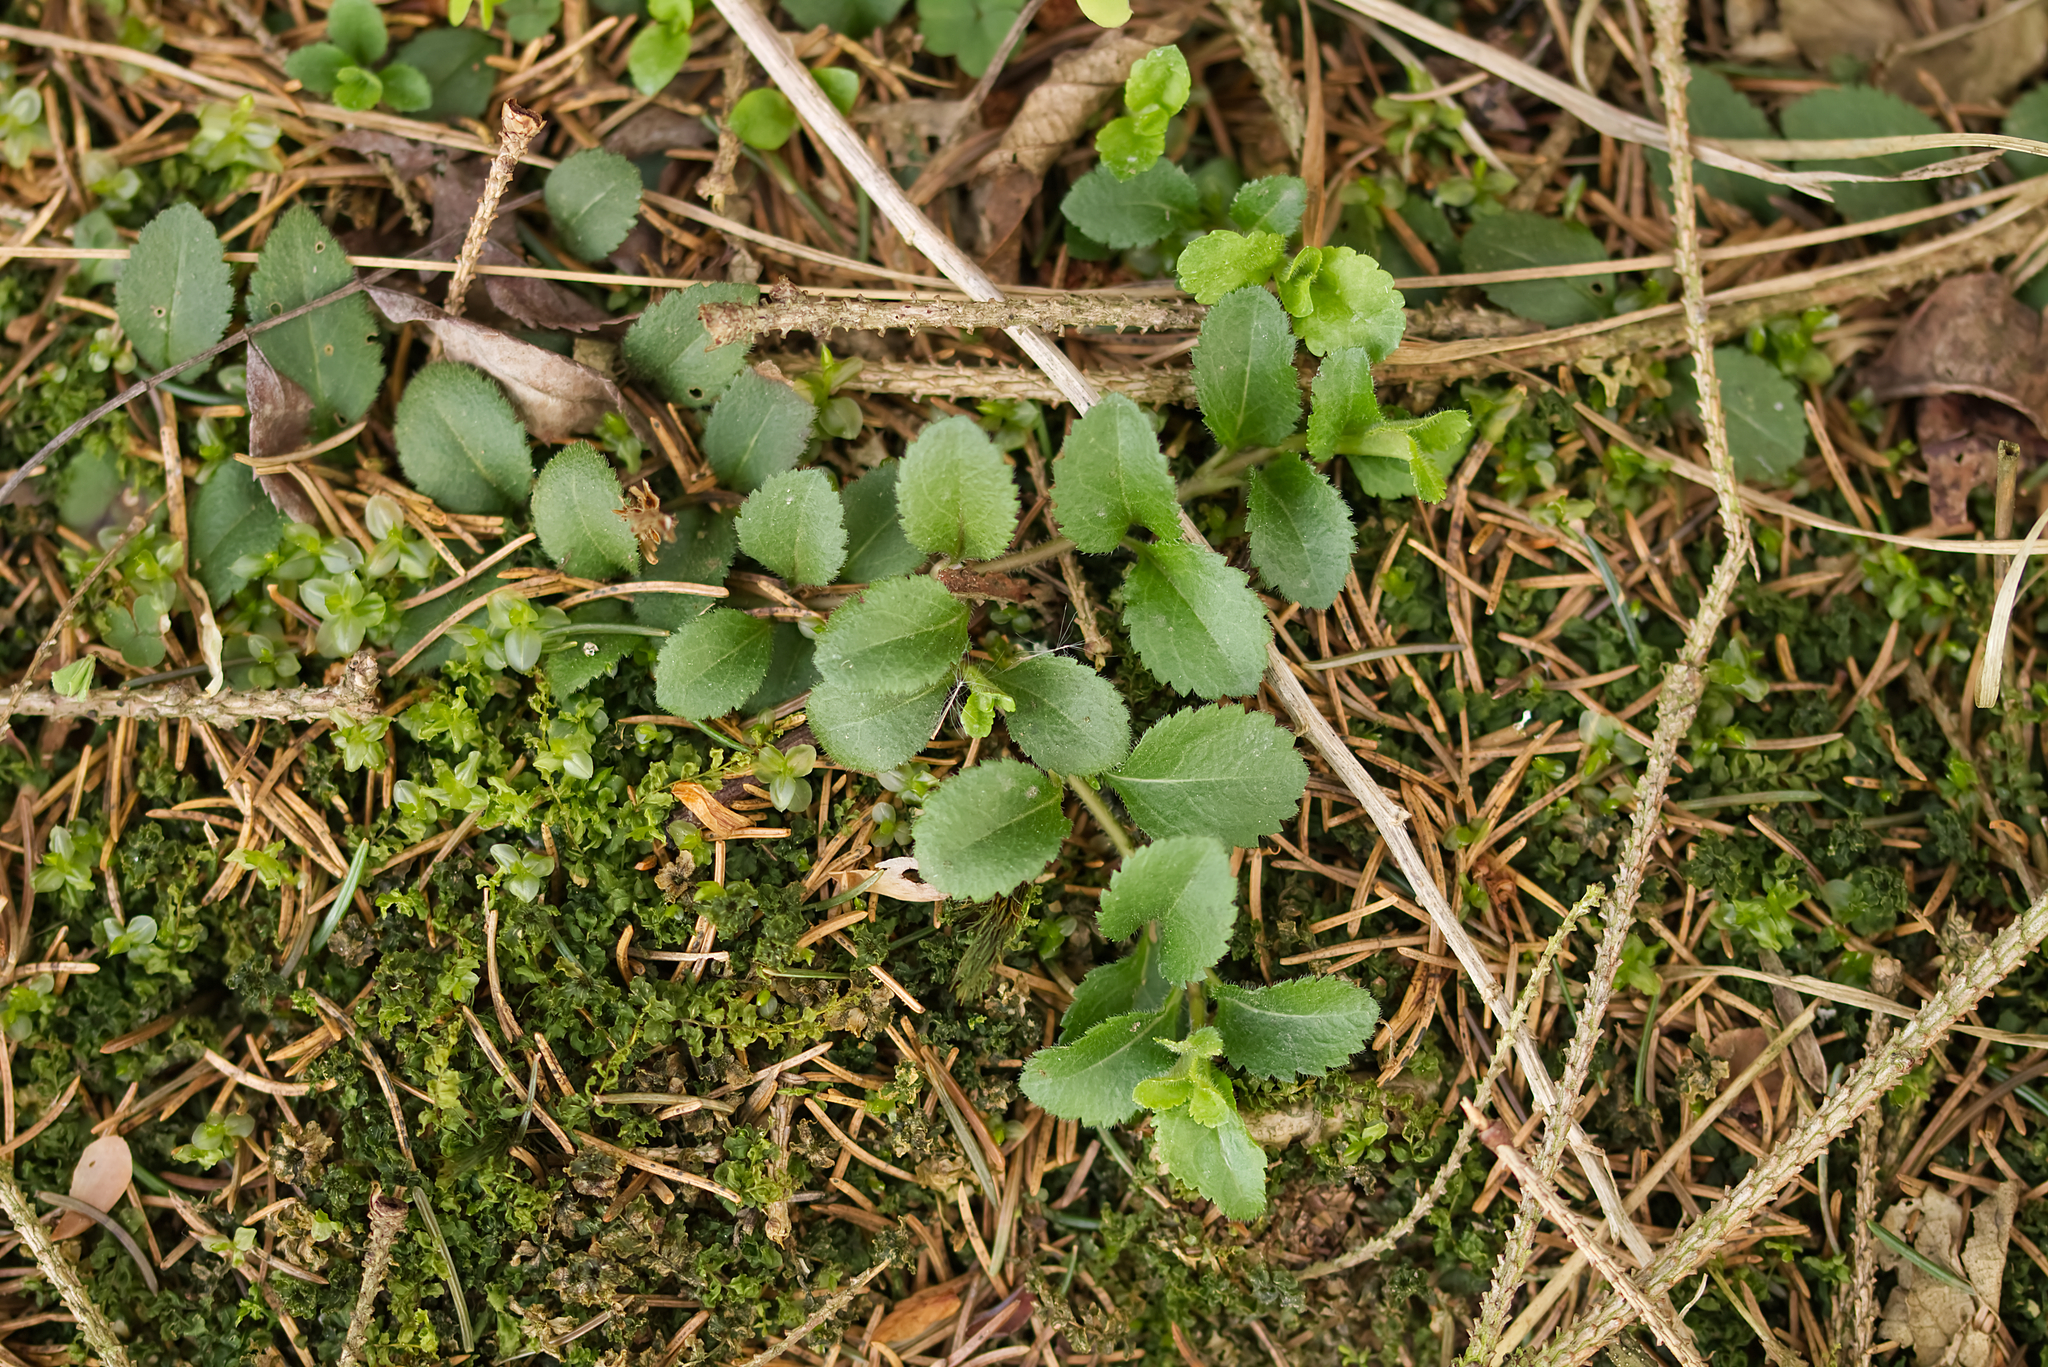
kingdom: Plantae
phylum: Tracheophyta
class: Magnoliopsida
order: Lamiales
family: Plantaginaceae
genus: Veronica
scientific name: Veronica officinalis
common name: Common speedwell
